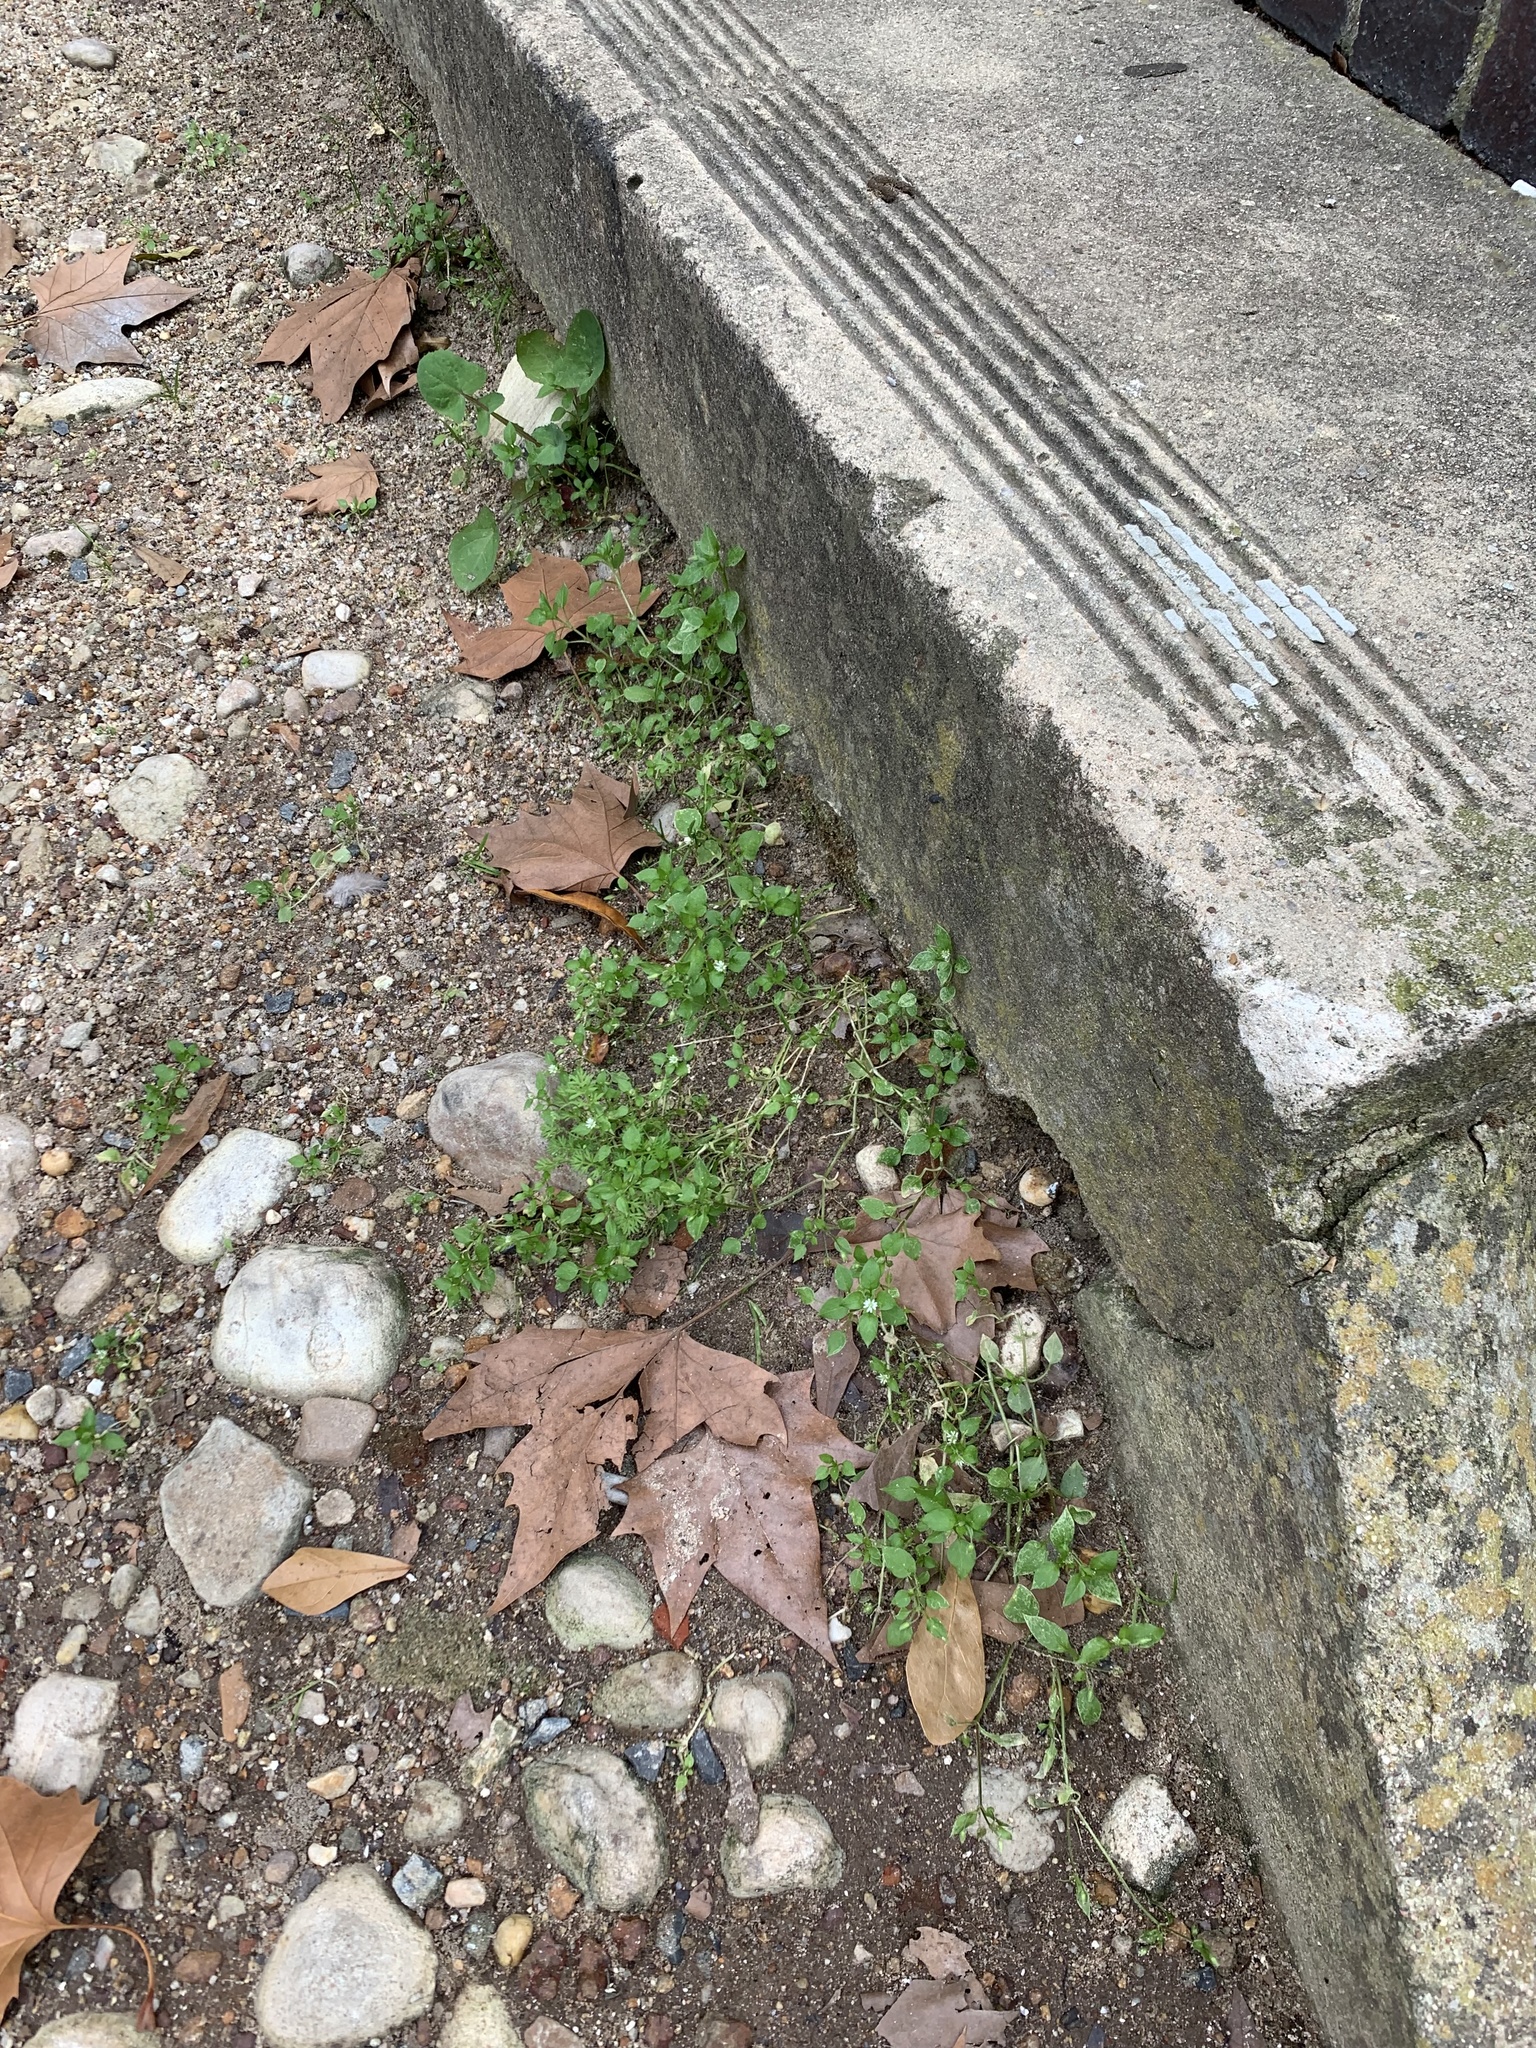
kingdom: Plantae
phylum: Tracheophyta
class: Magnoliopsida
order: Caryophyllales
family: Caryophyllaceae
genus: Stellaria
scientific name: Stellaria media
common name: Common chickweed
